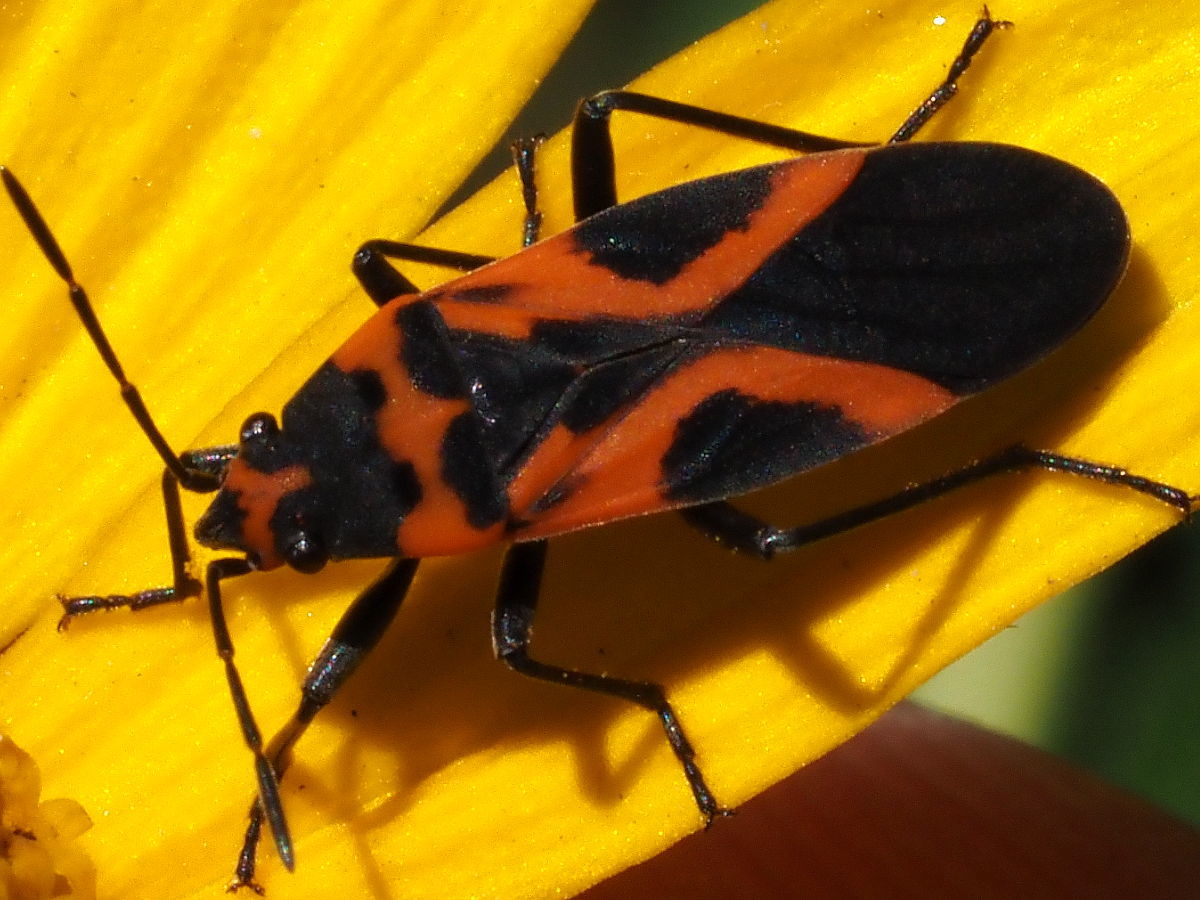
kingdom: Animalia
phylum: Arthropoda
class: Insecta
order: Hemiptera
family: Lygaeidae
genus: Lygaeus
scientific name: Lygaeus turcicus
